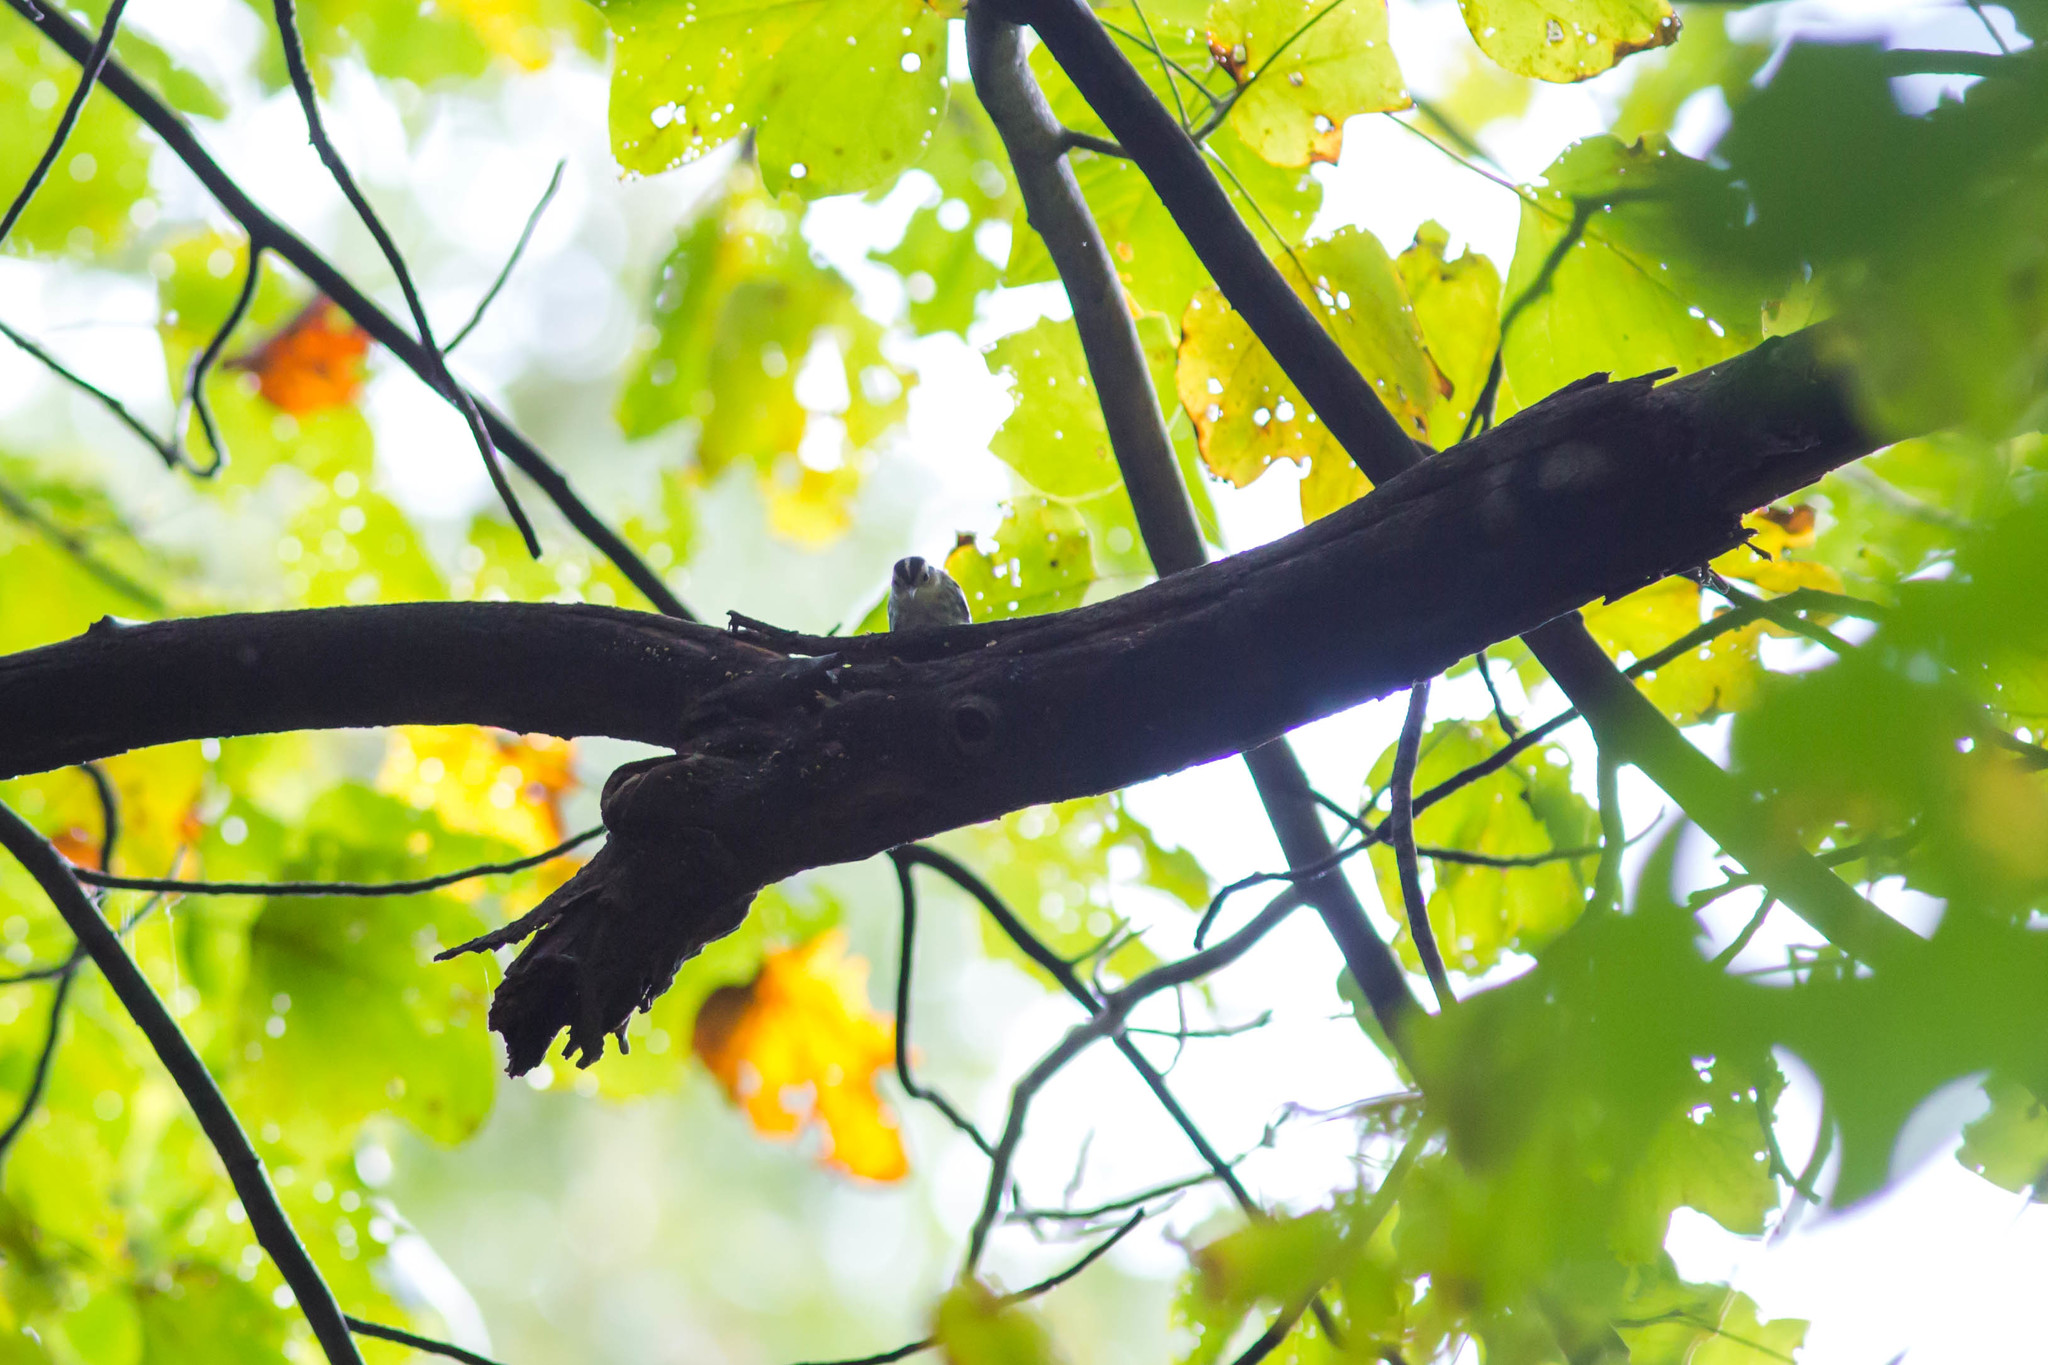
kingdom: Animalia
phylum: Chordata
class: Aves
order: Passeriformes
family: Parulidae
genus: Mniotilta
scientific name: Mniotilta varia
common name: Black-and-white warbler
